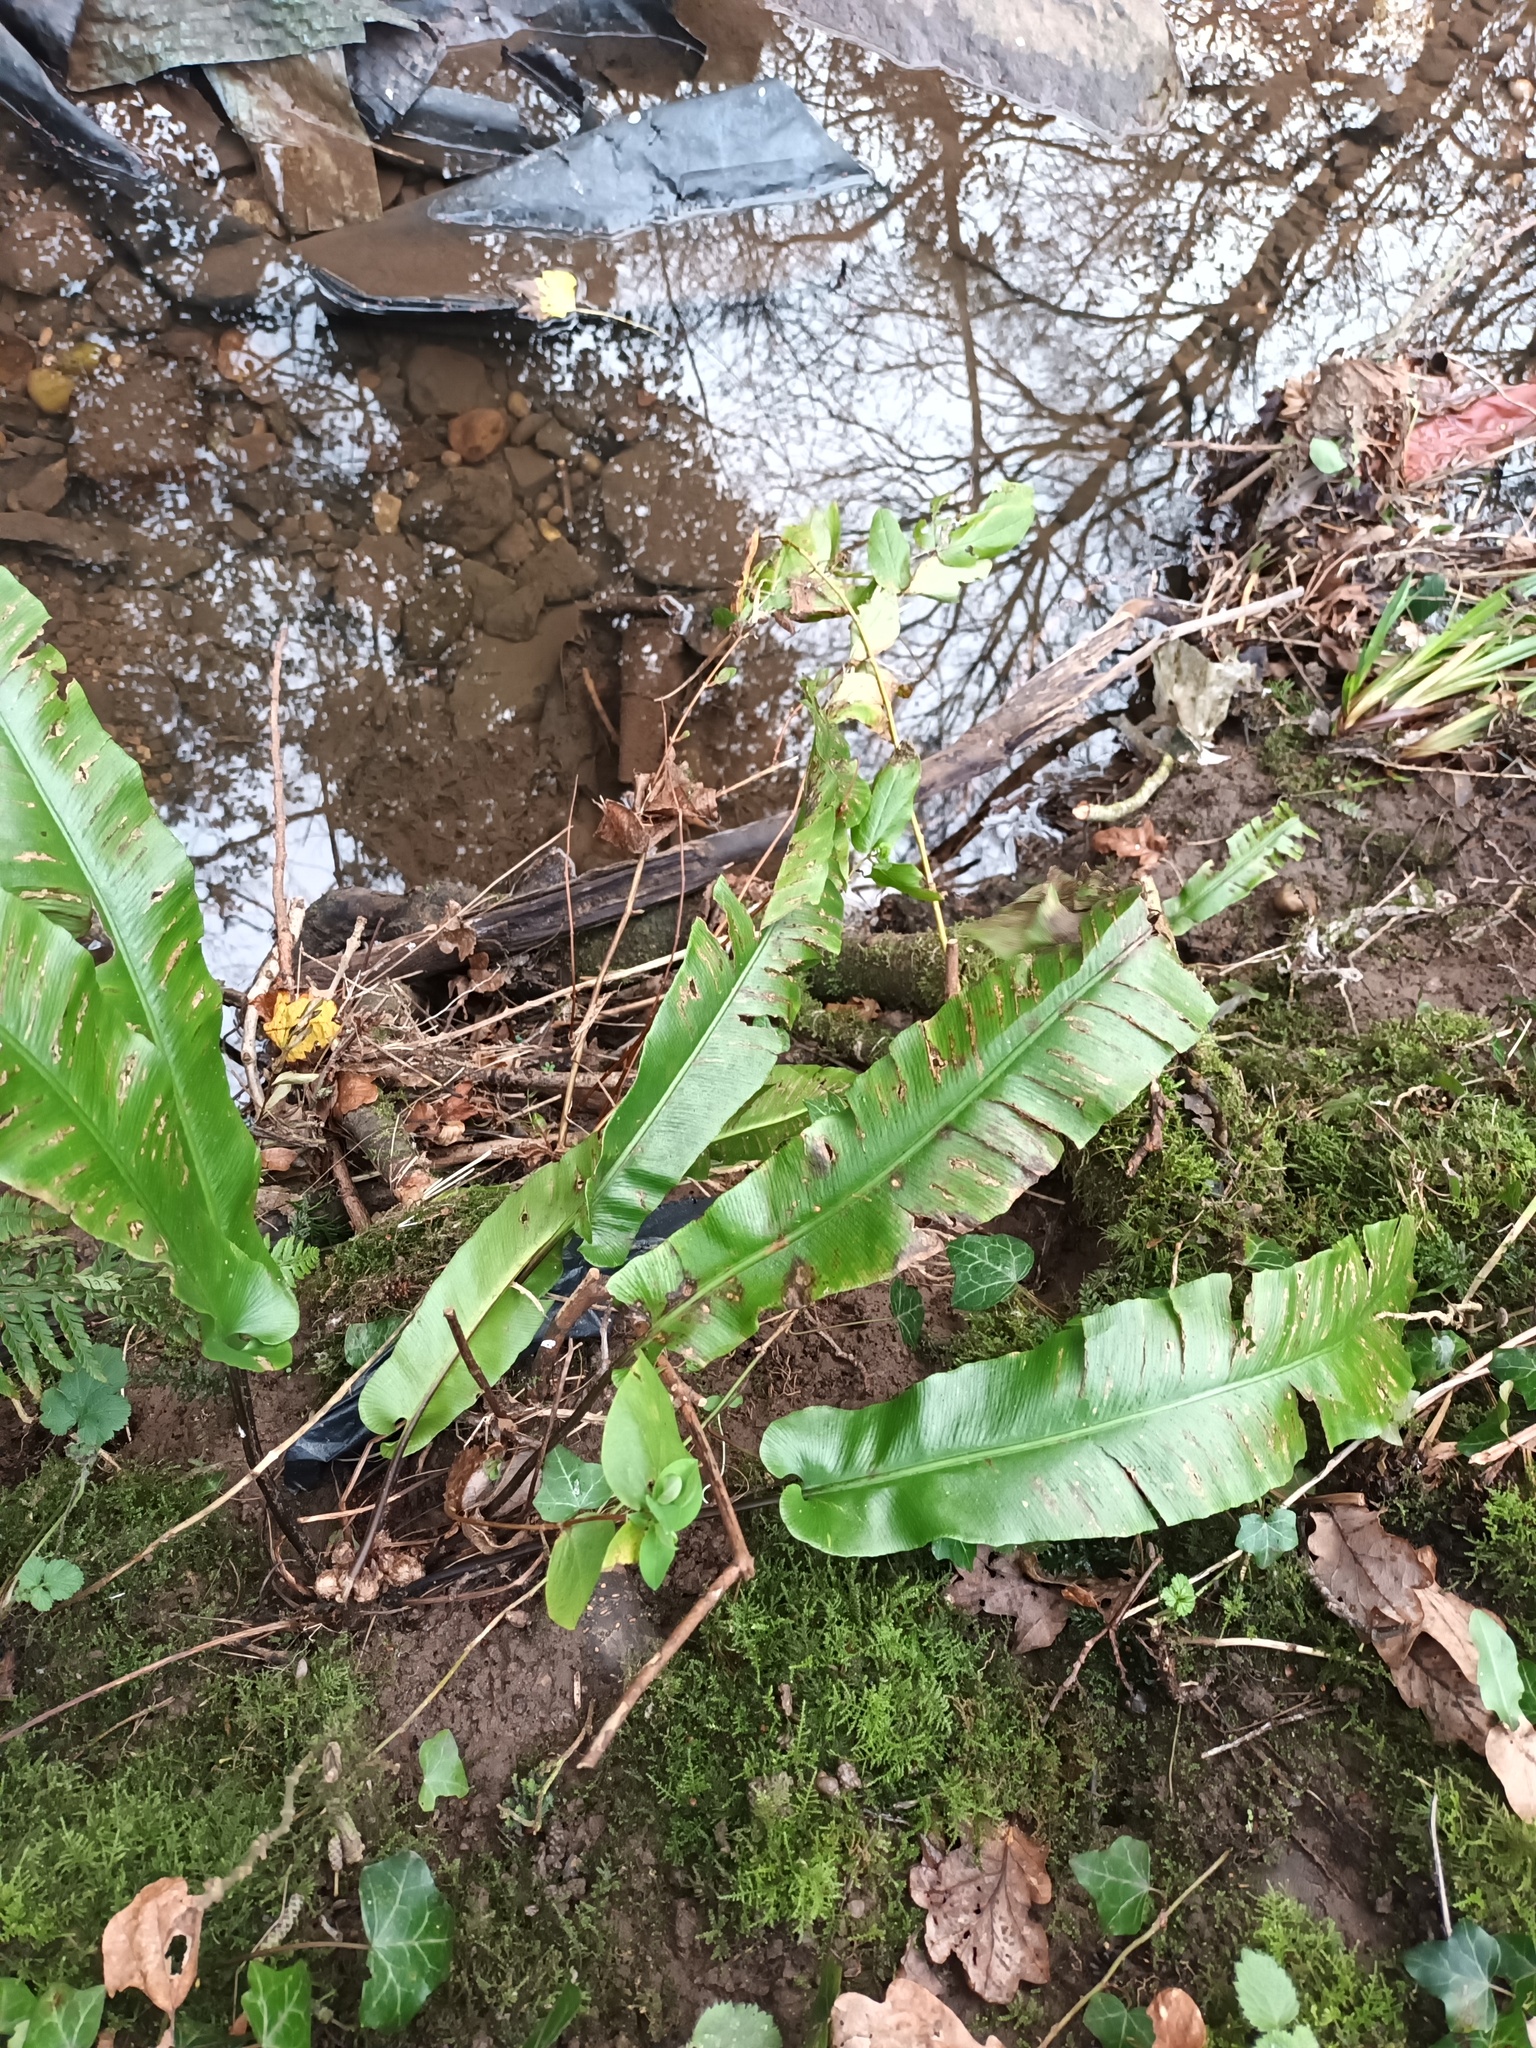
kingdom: Plantae
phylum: Tracheophyta
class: Polypodiopsida
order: Polypodiales
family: Aspleniaceae
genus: Asplenium
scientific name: Asplenium scolopendrium
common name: Hart's-tongue fern
